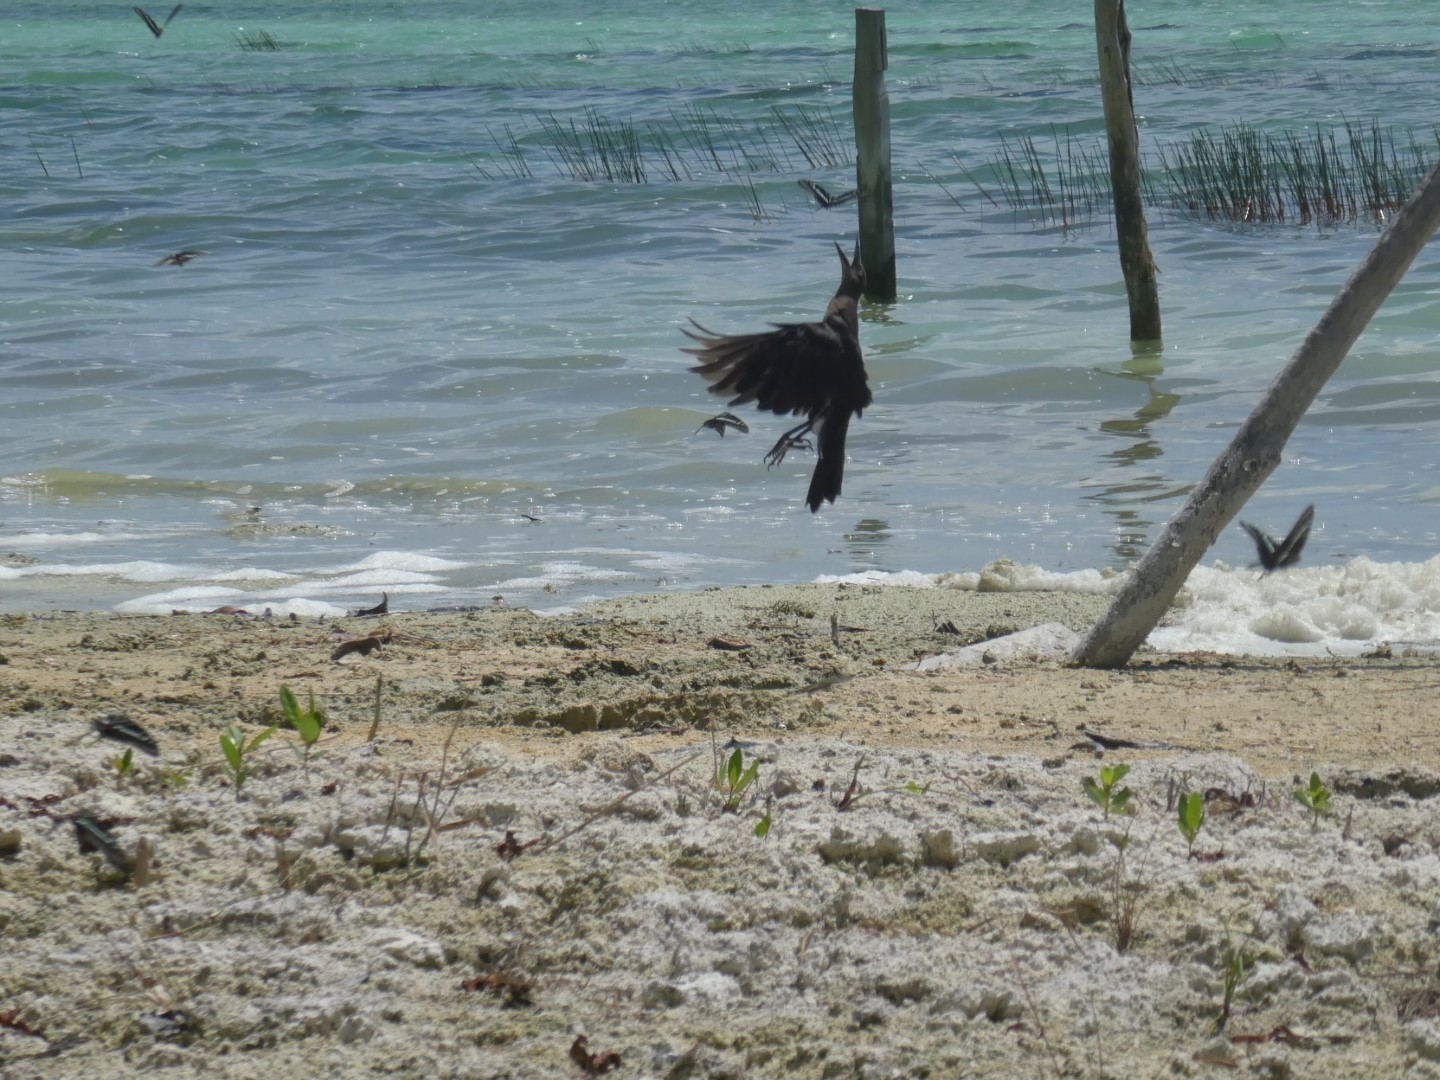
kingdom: Animalia
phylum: Chordata
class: Aves
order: Passeriformes
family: Icteridae
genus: Quiscalus
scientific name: Quiscalus mexicanus
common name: Great-tailed grackle
